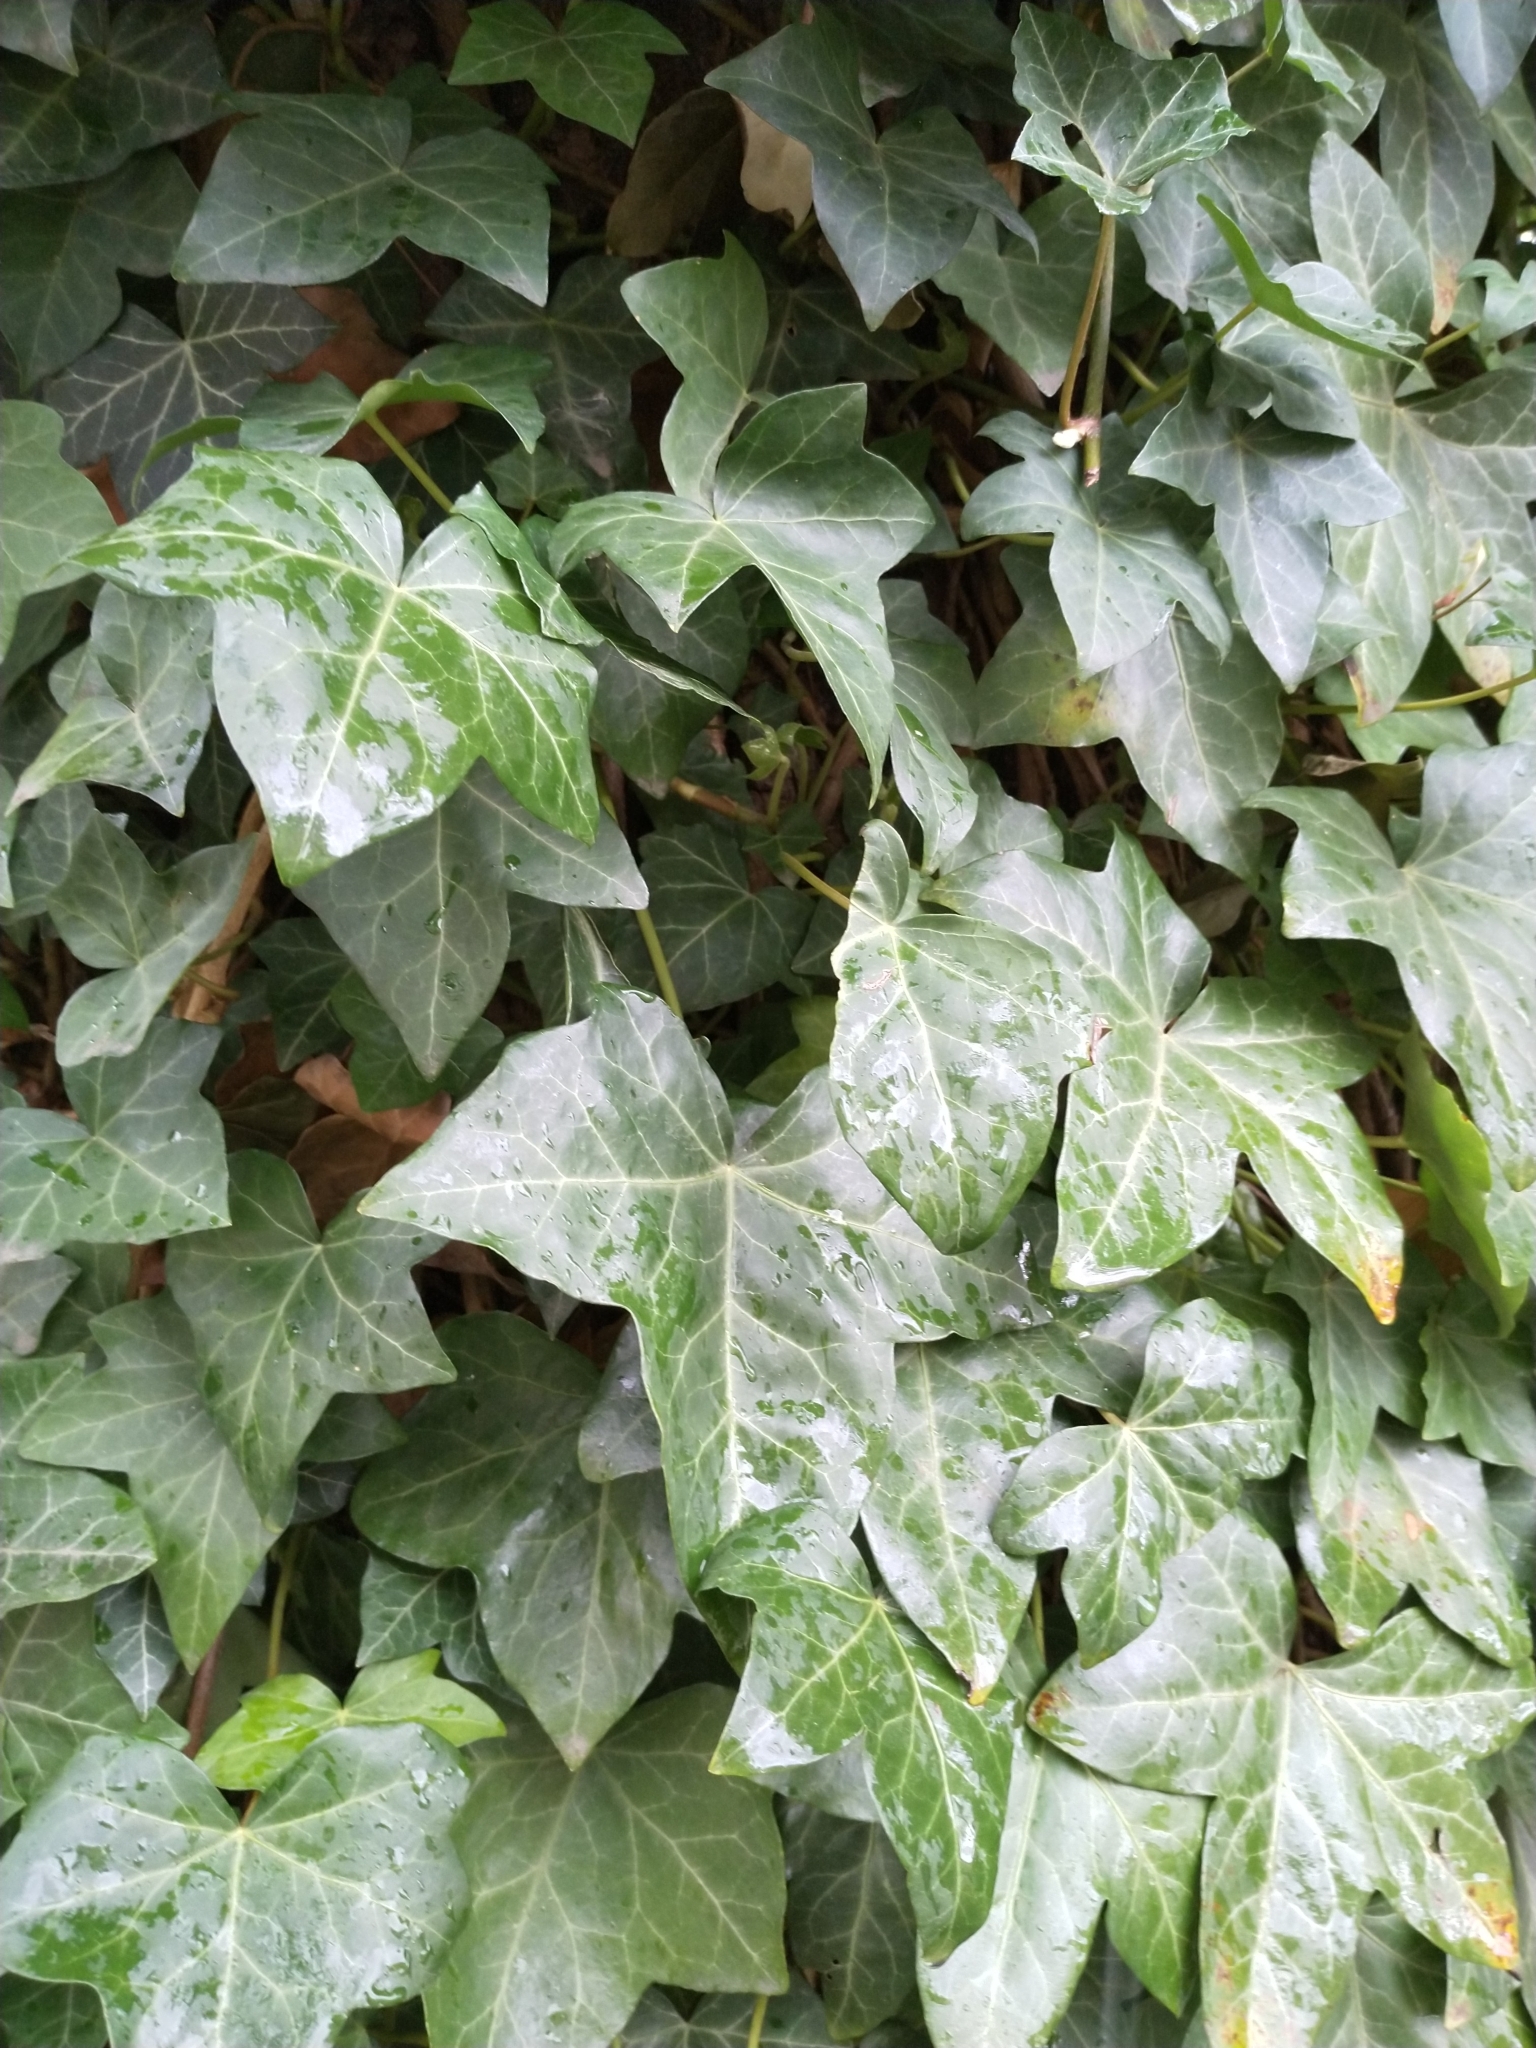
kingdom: Plantae
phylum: Tracheophyta
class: Magnoliopsida
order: Apiales
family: Araliaceae
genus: Hedera
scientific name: Hedera helix
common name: Ivy
